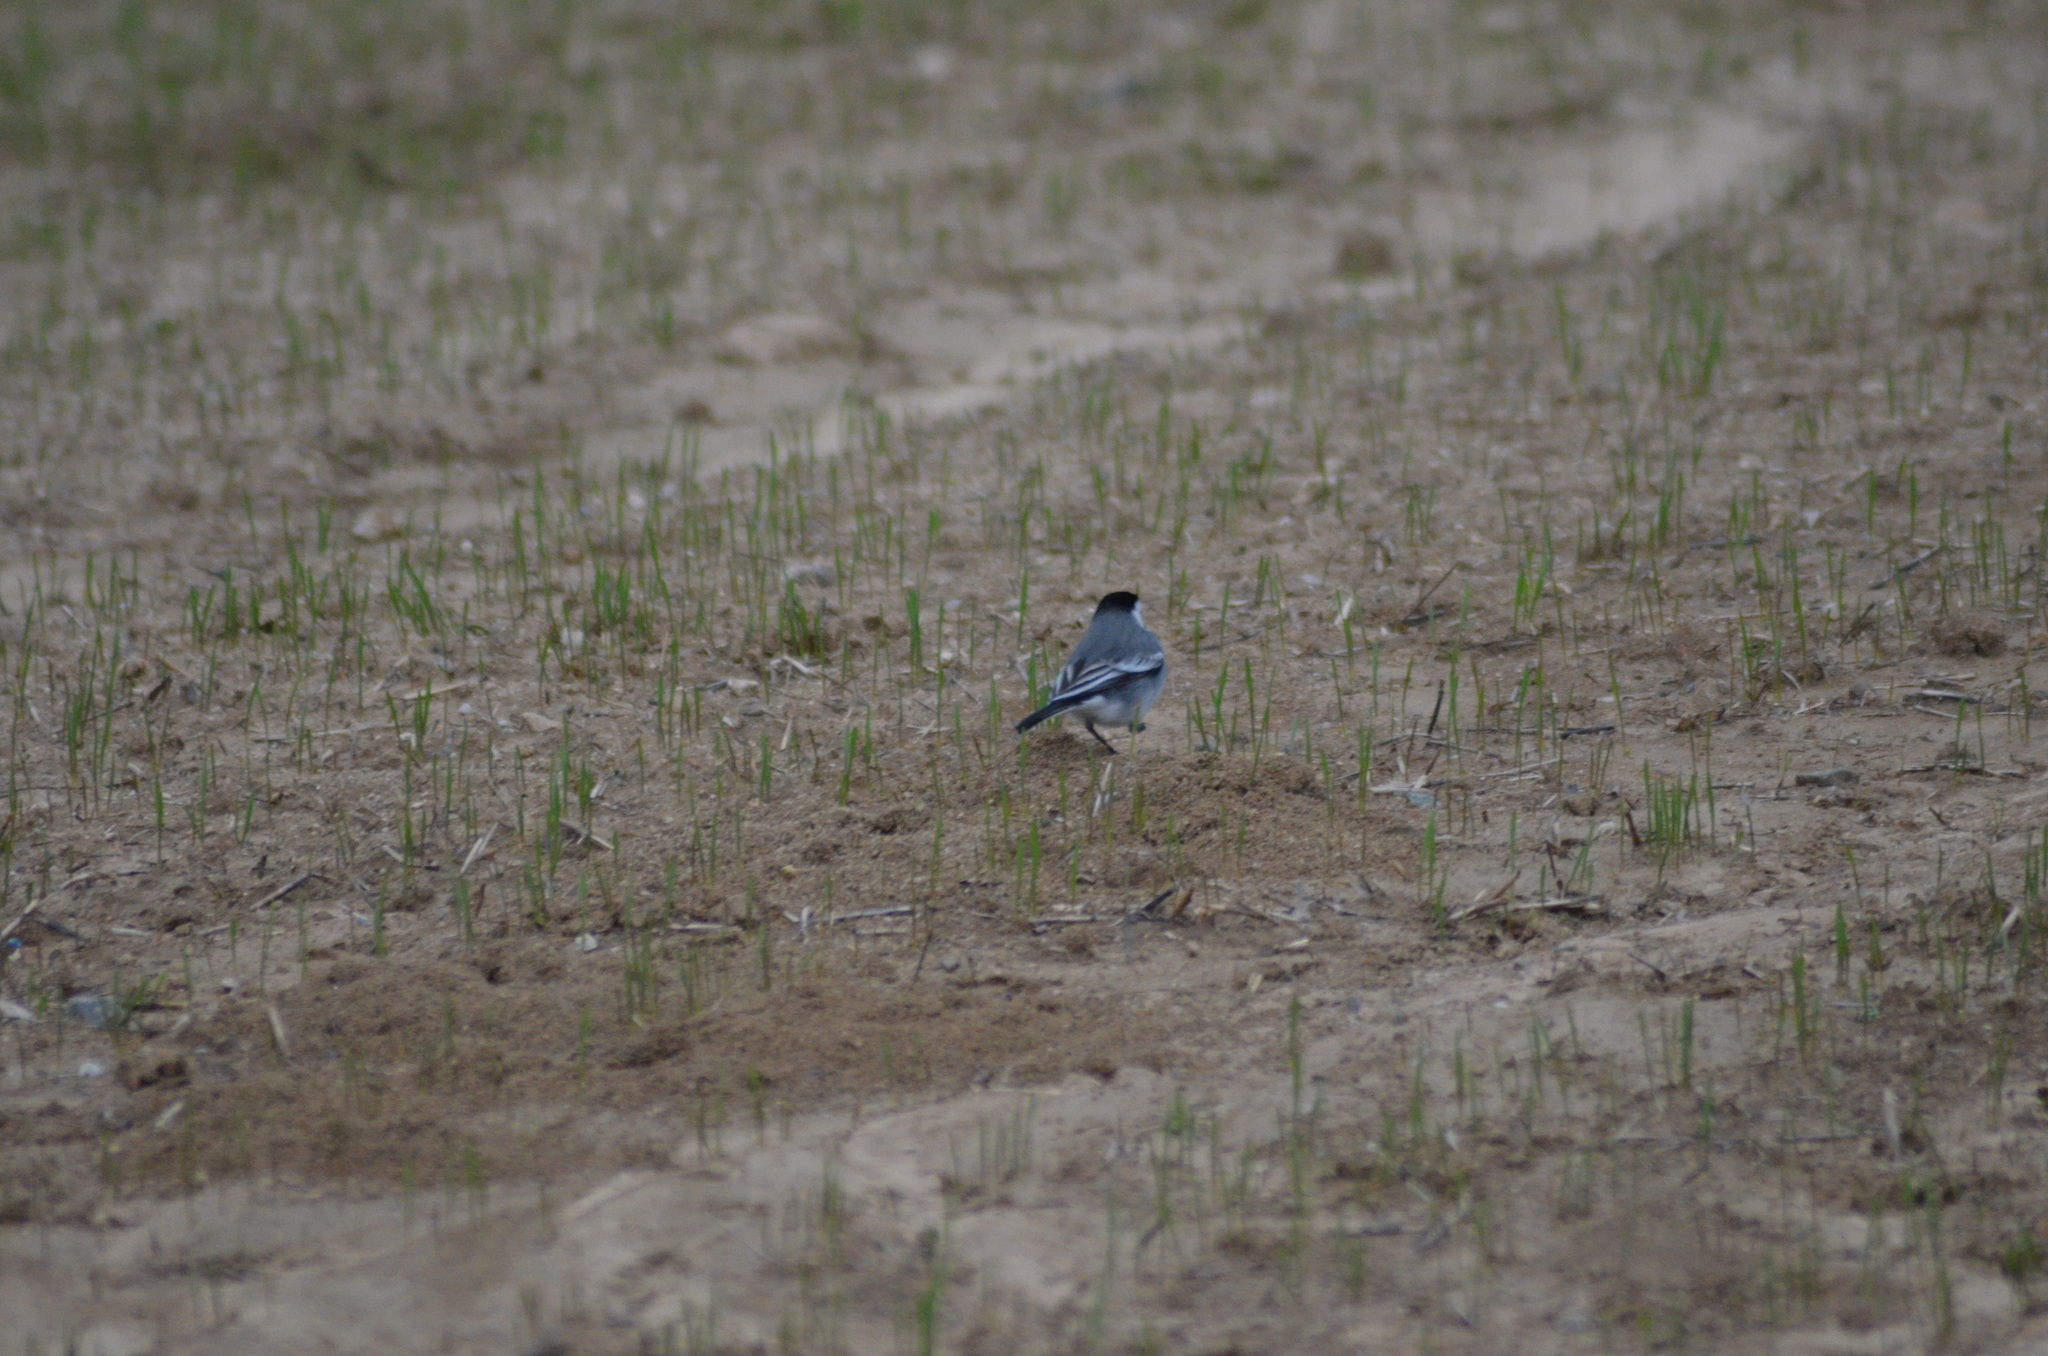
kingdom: Animalia
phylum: Chordata
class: Aves
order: Passeriformes
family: Motacillidae
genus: Motacilla
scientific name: Motacilla alba
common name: White wagtail
